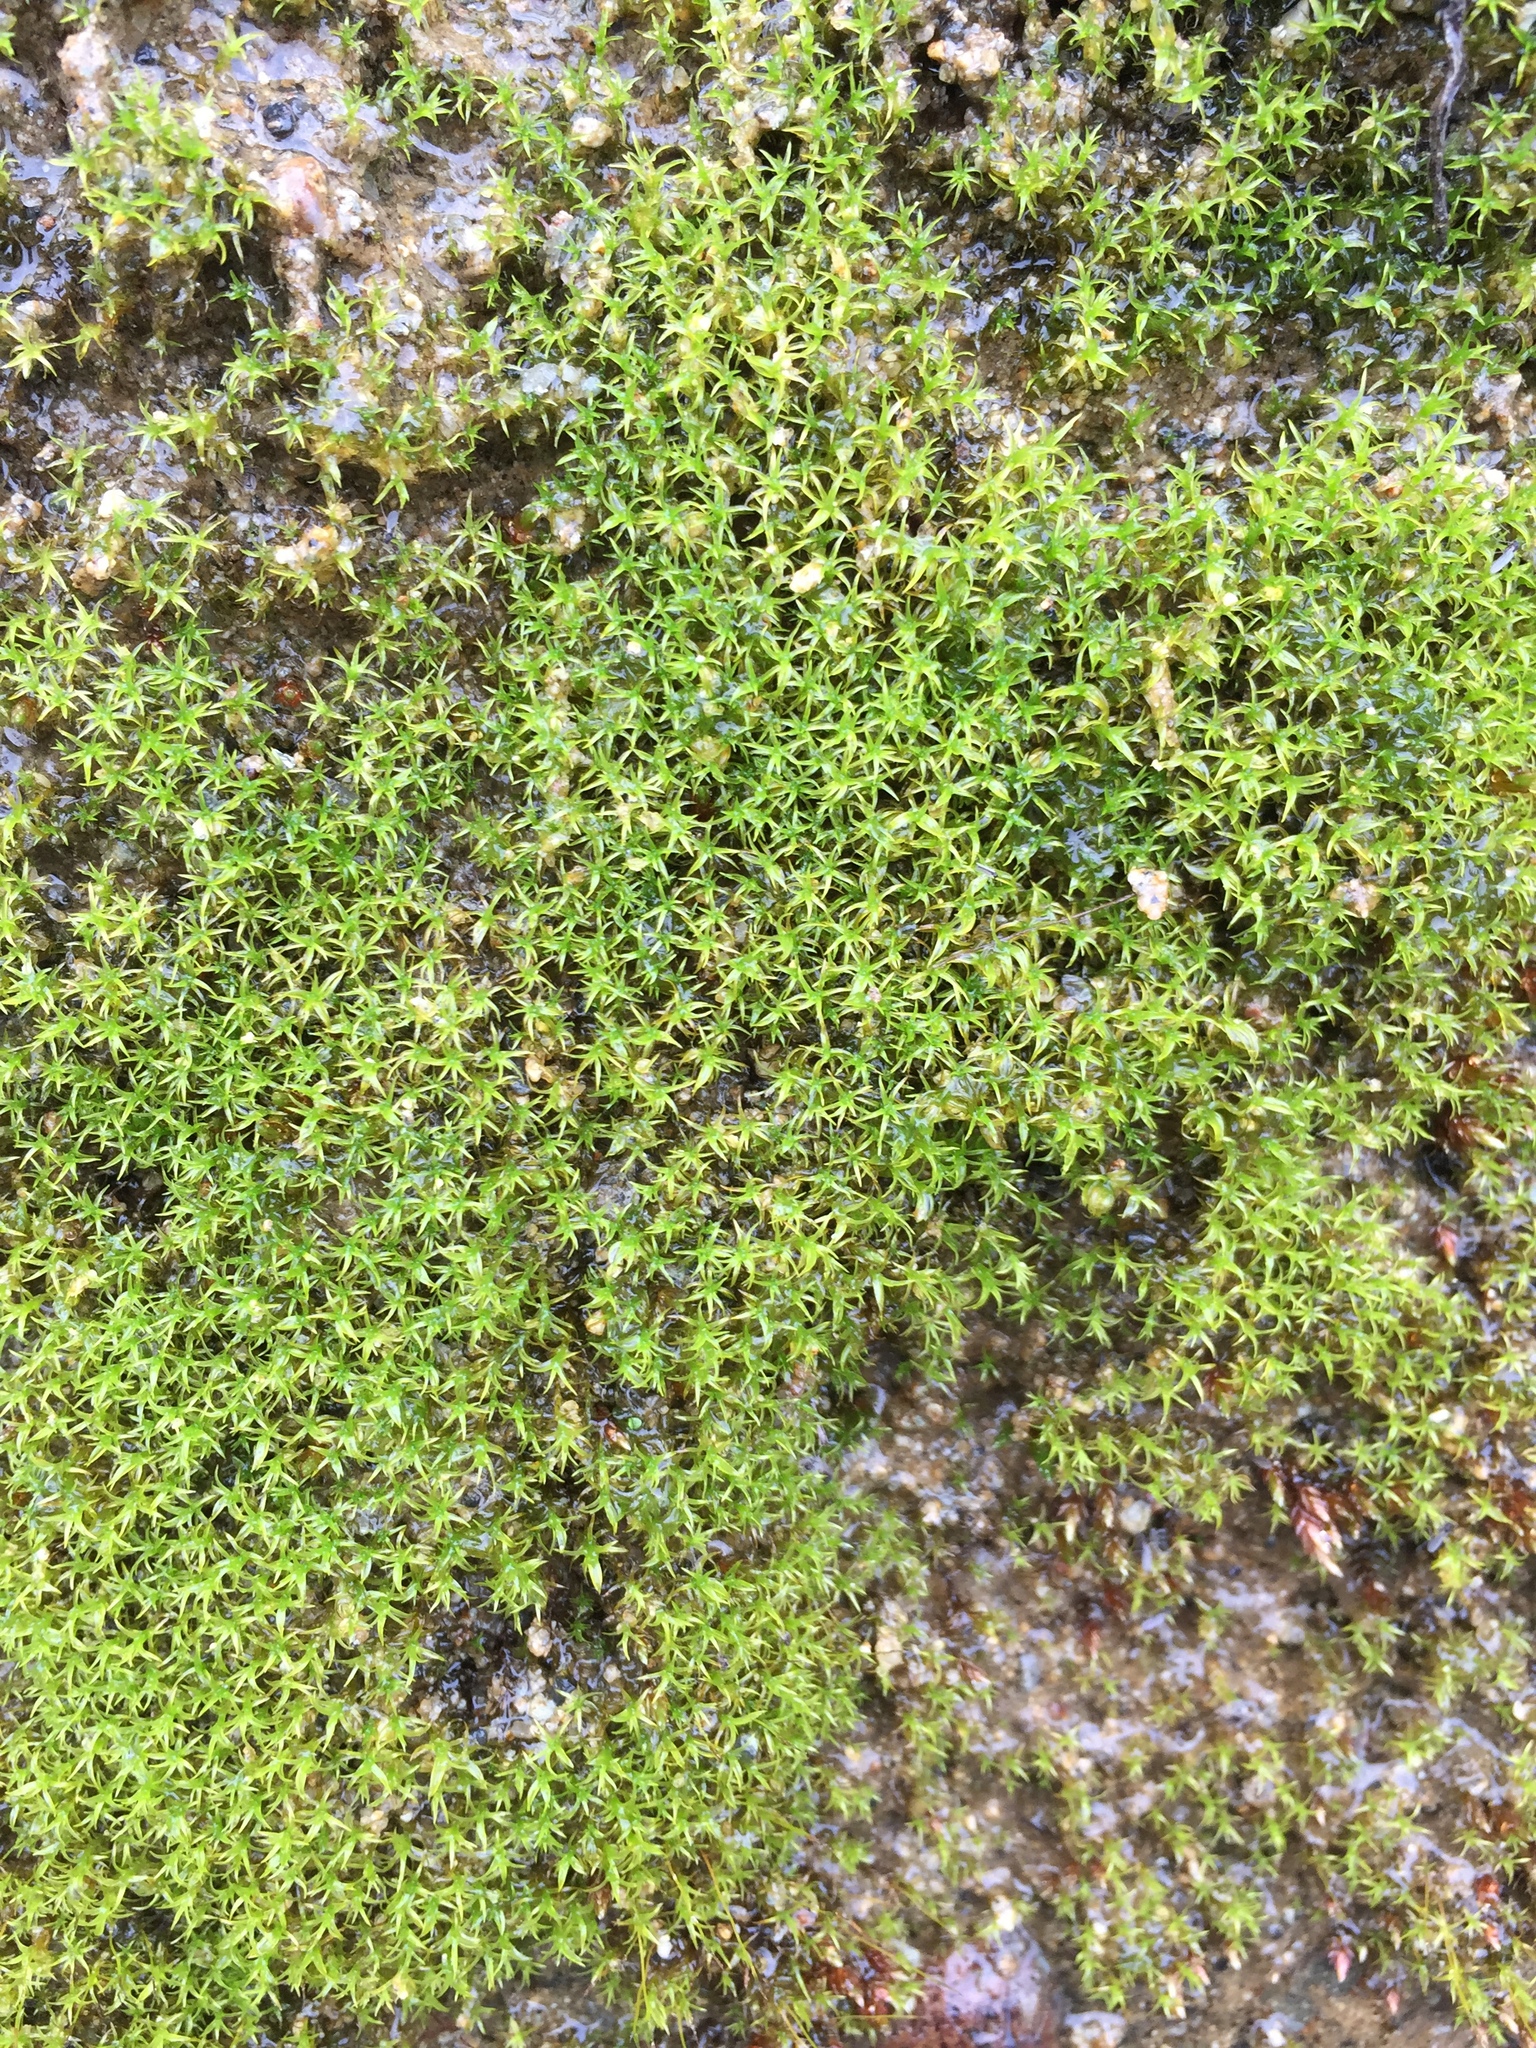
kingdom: Plantae
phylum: Bryophyta
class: Bryopsida
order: Dicranales
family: Aongstroemiaceae
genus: Dichodontium
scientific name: Dichodontium pellucidum
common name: Transparent fork moss
